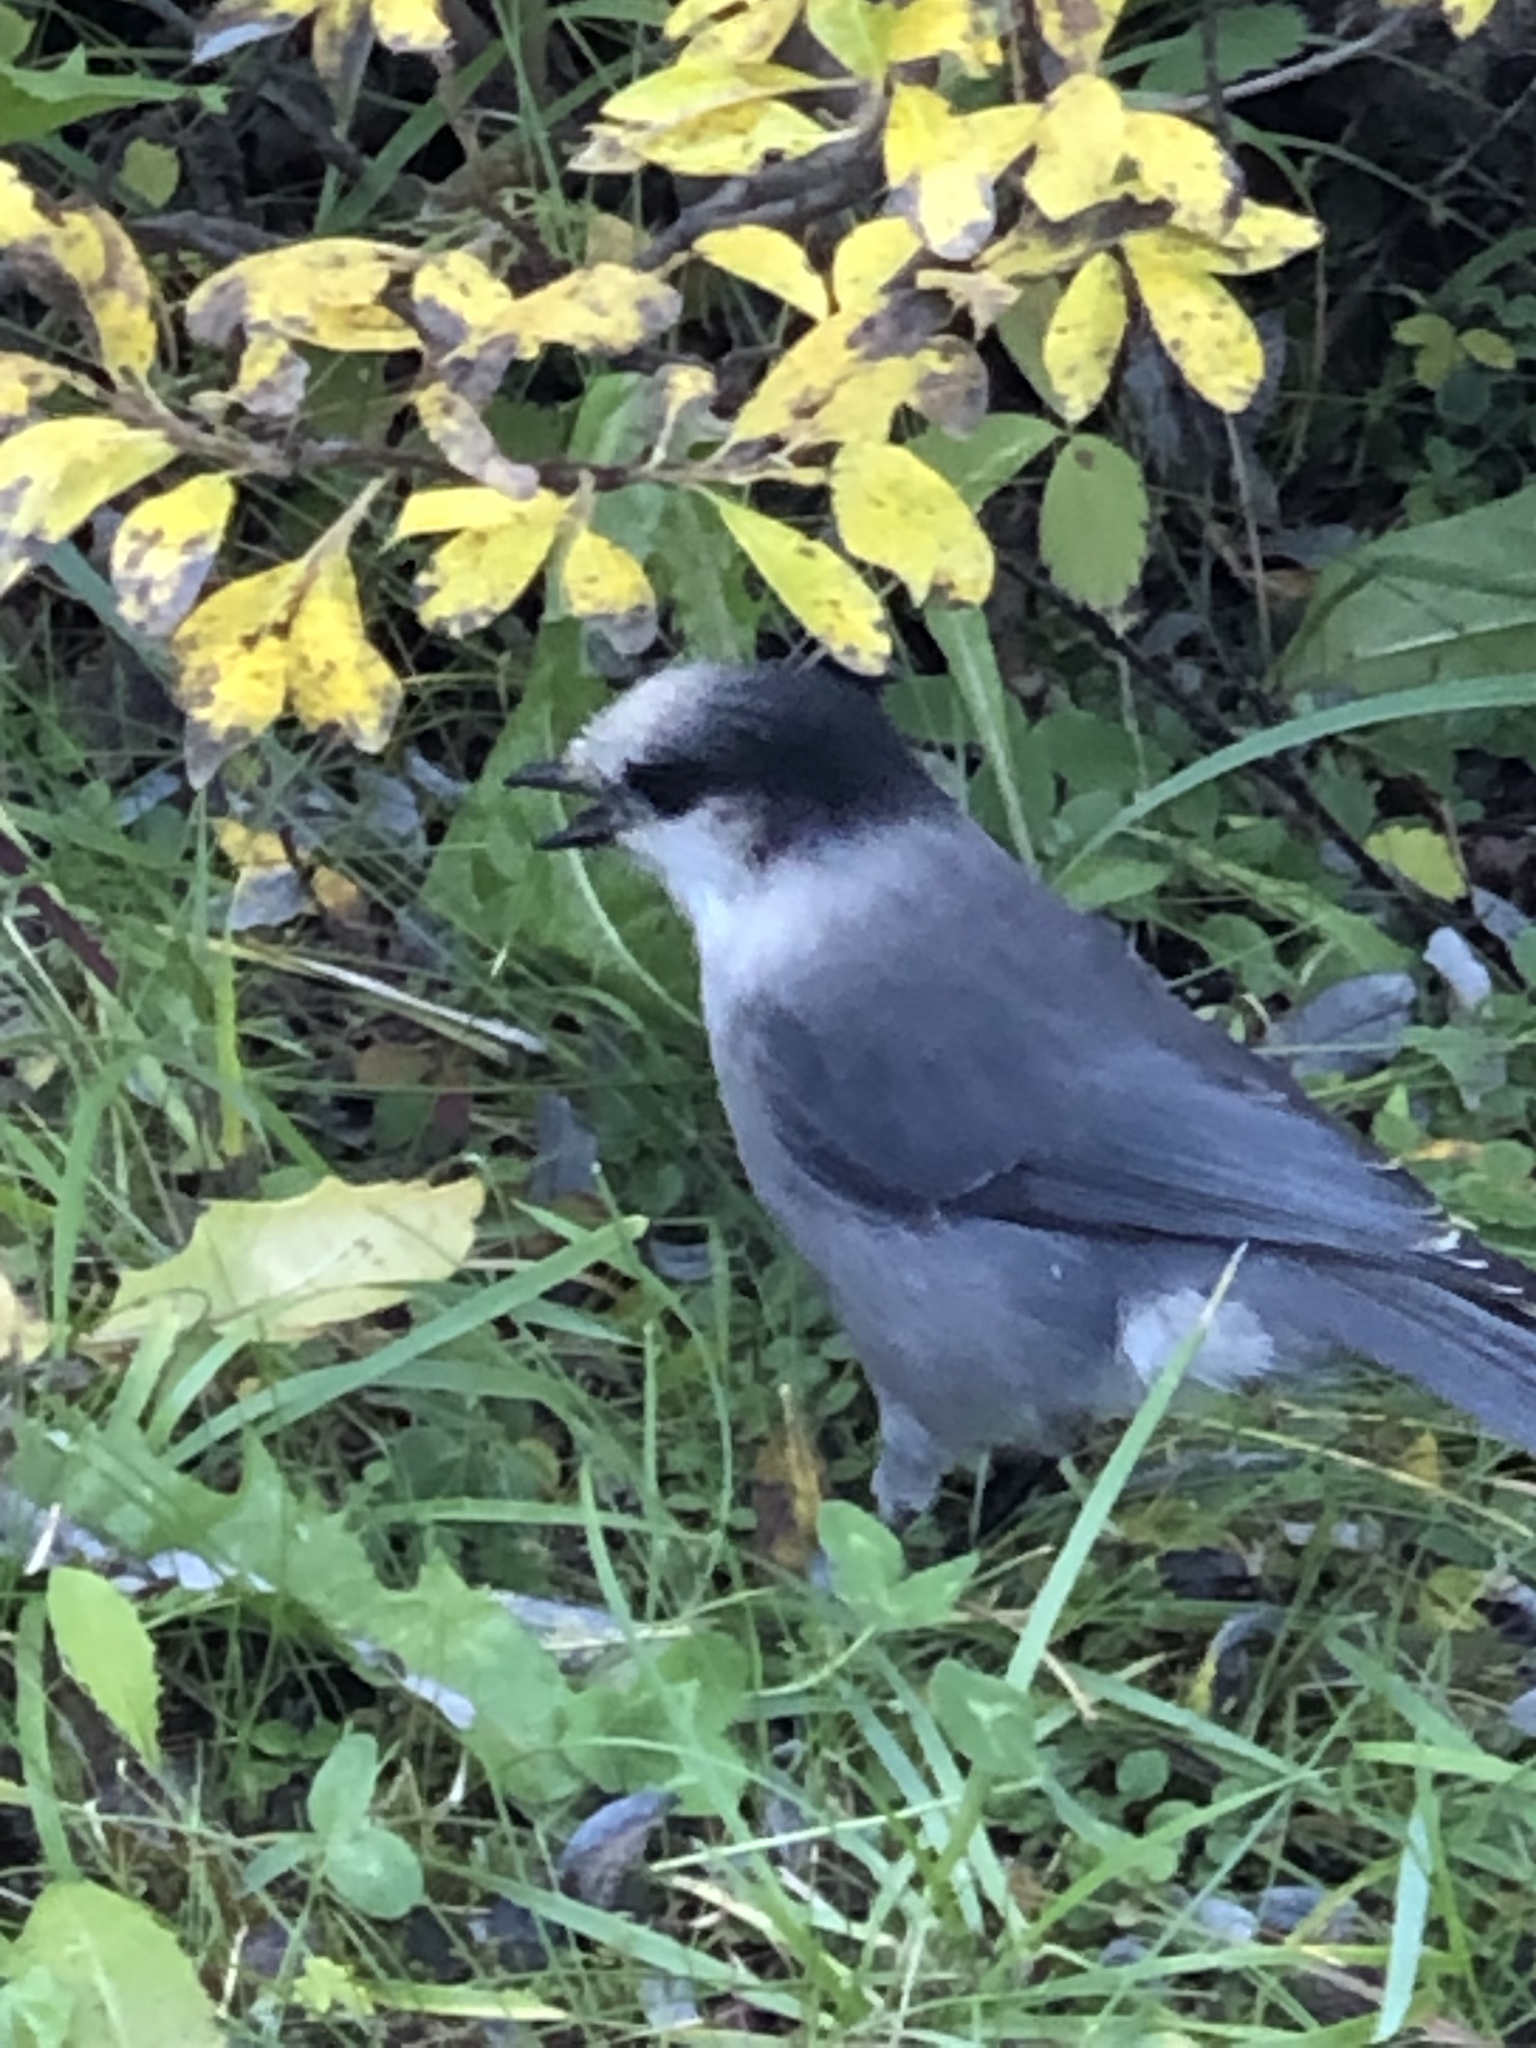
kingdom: Animalia
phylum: Chordata
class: Aves
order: Passeriformes
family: Corvidae
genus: Perisoreus
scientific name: Perisoreus canadensis
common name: Gray jay
